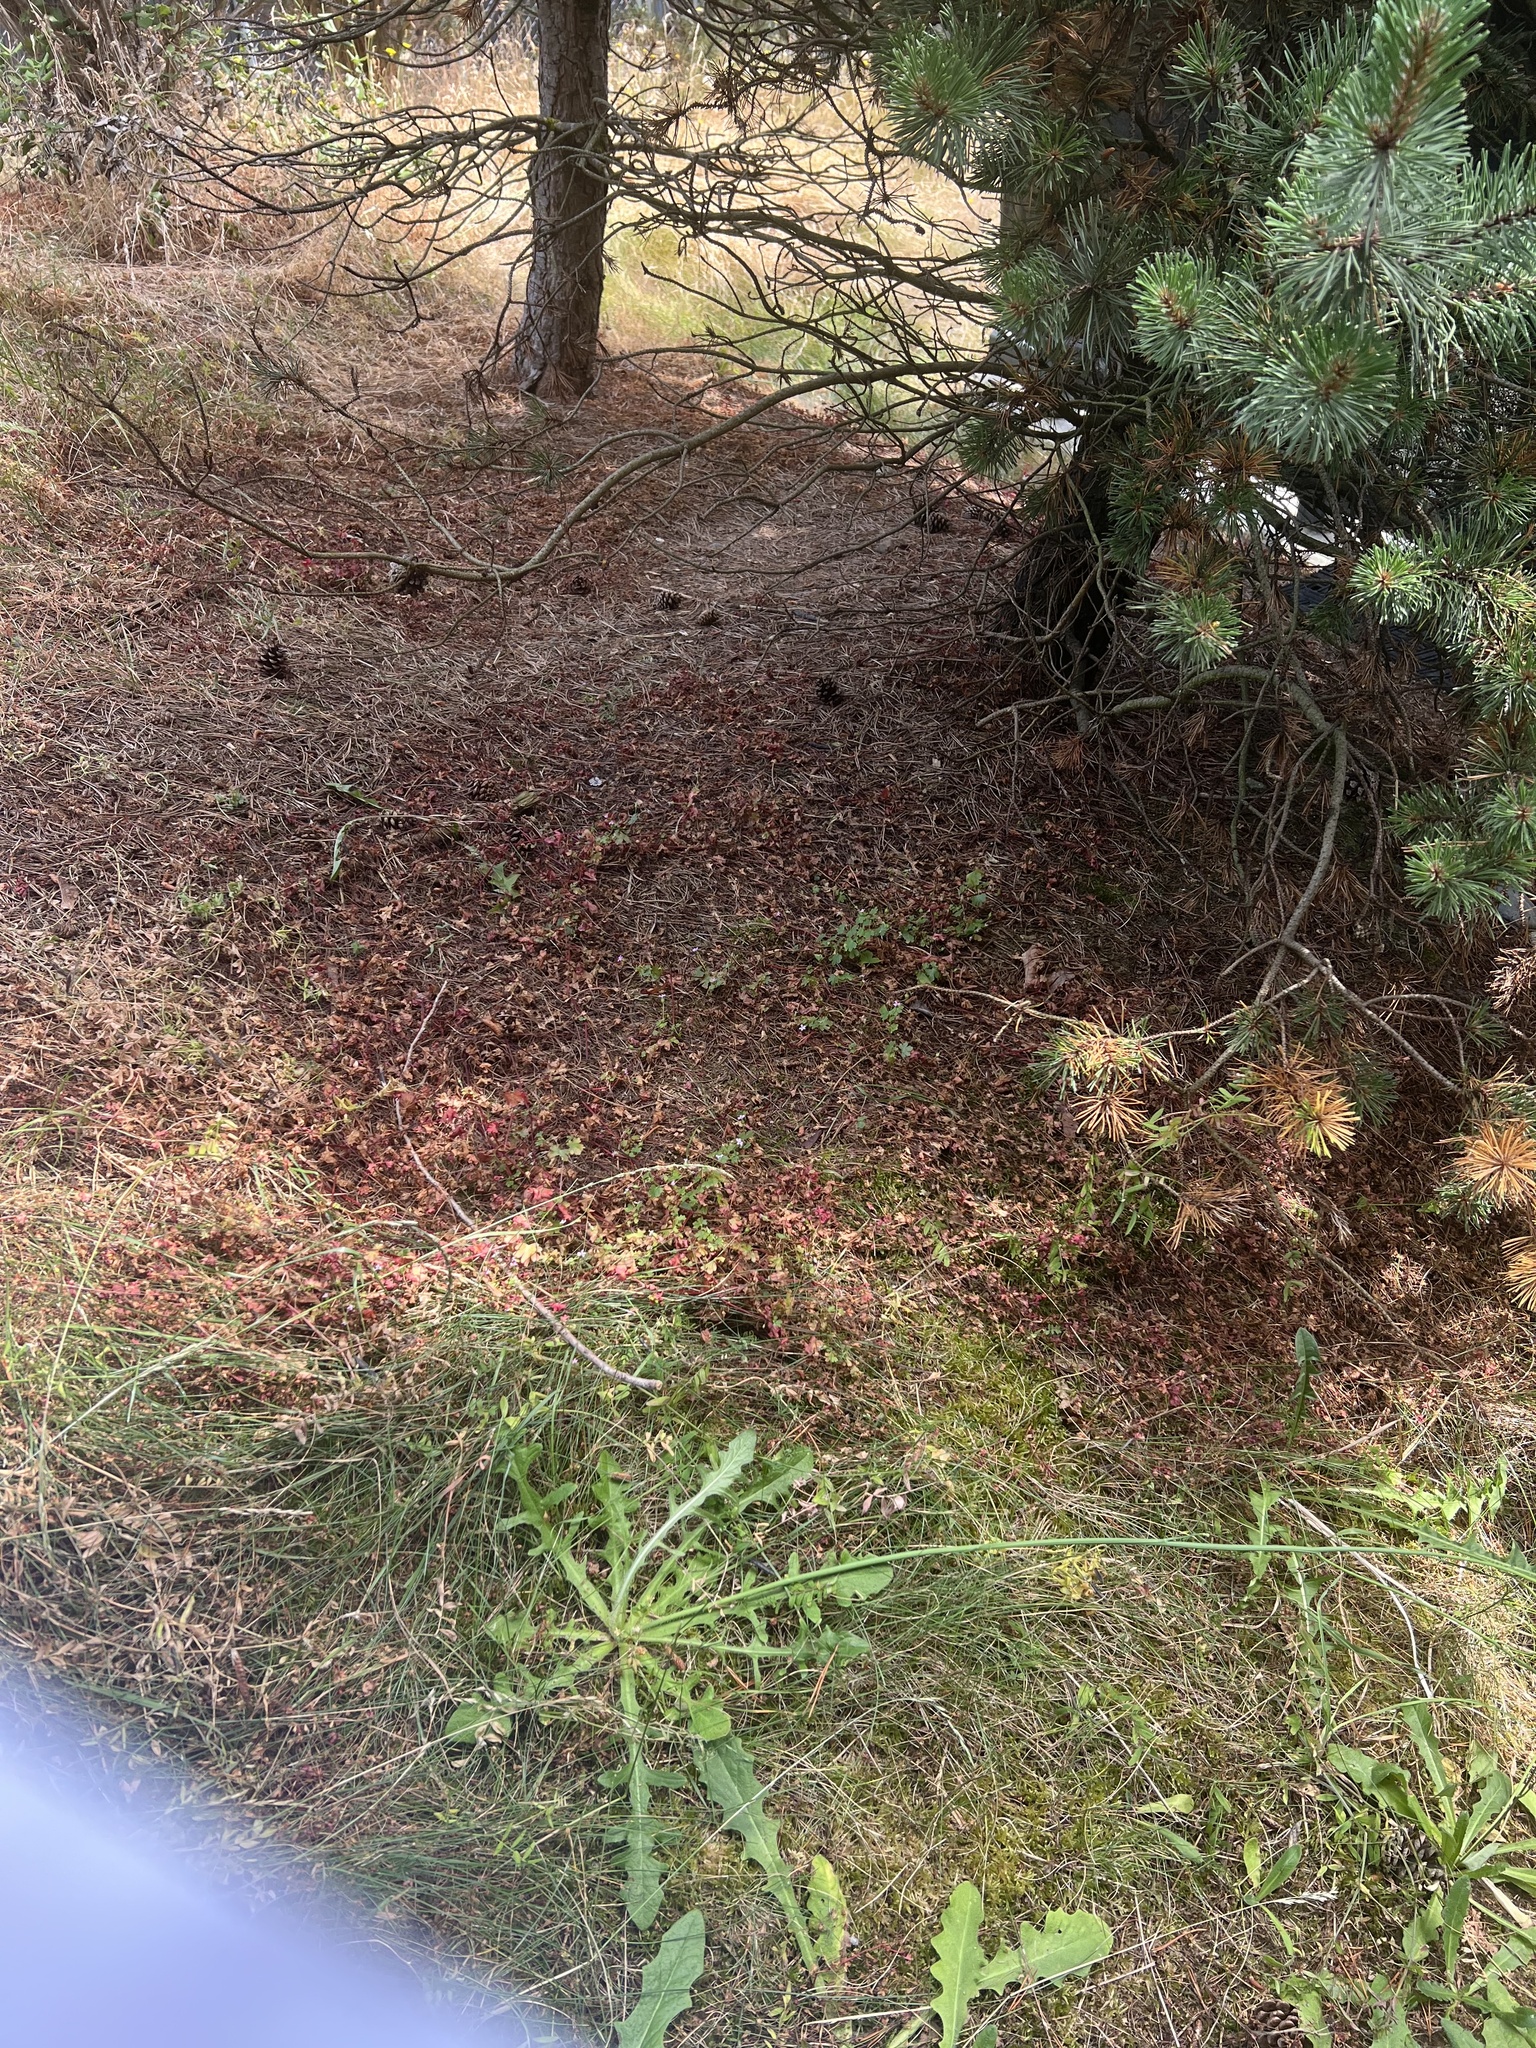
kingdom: Plantae
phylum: Tracheophyta
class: Magnoliopsida
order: Geraniales
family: Geraniaceae
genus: Geranium
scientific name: Geranium lucidum
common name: Shining crane's-bill
